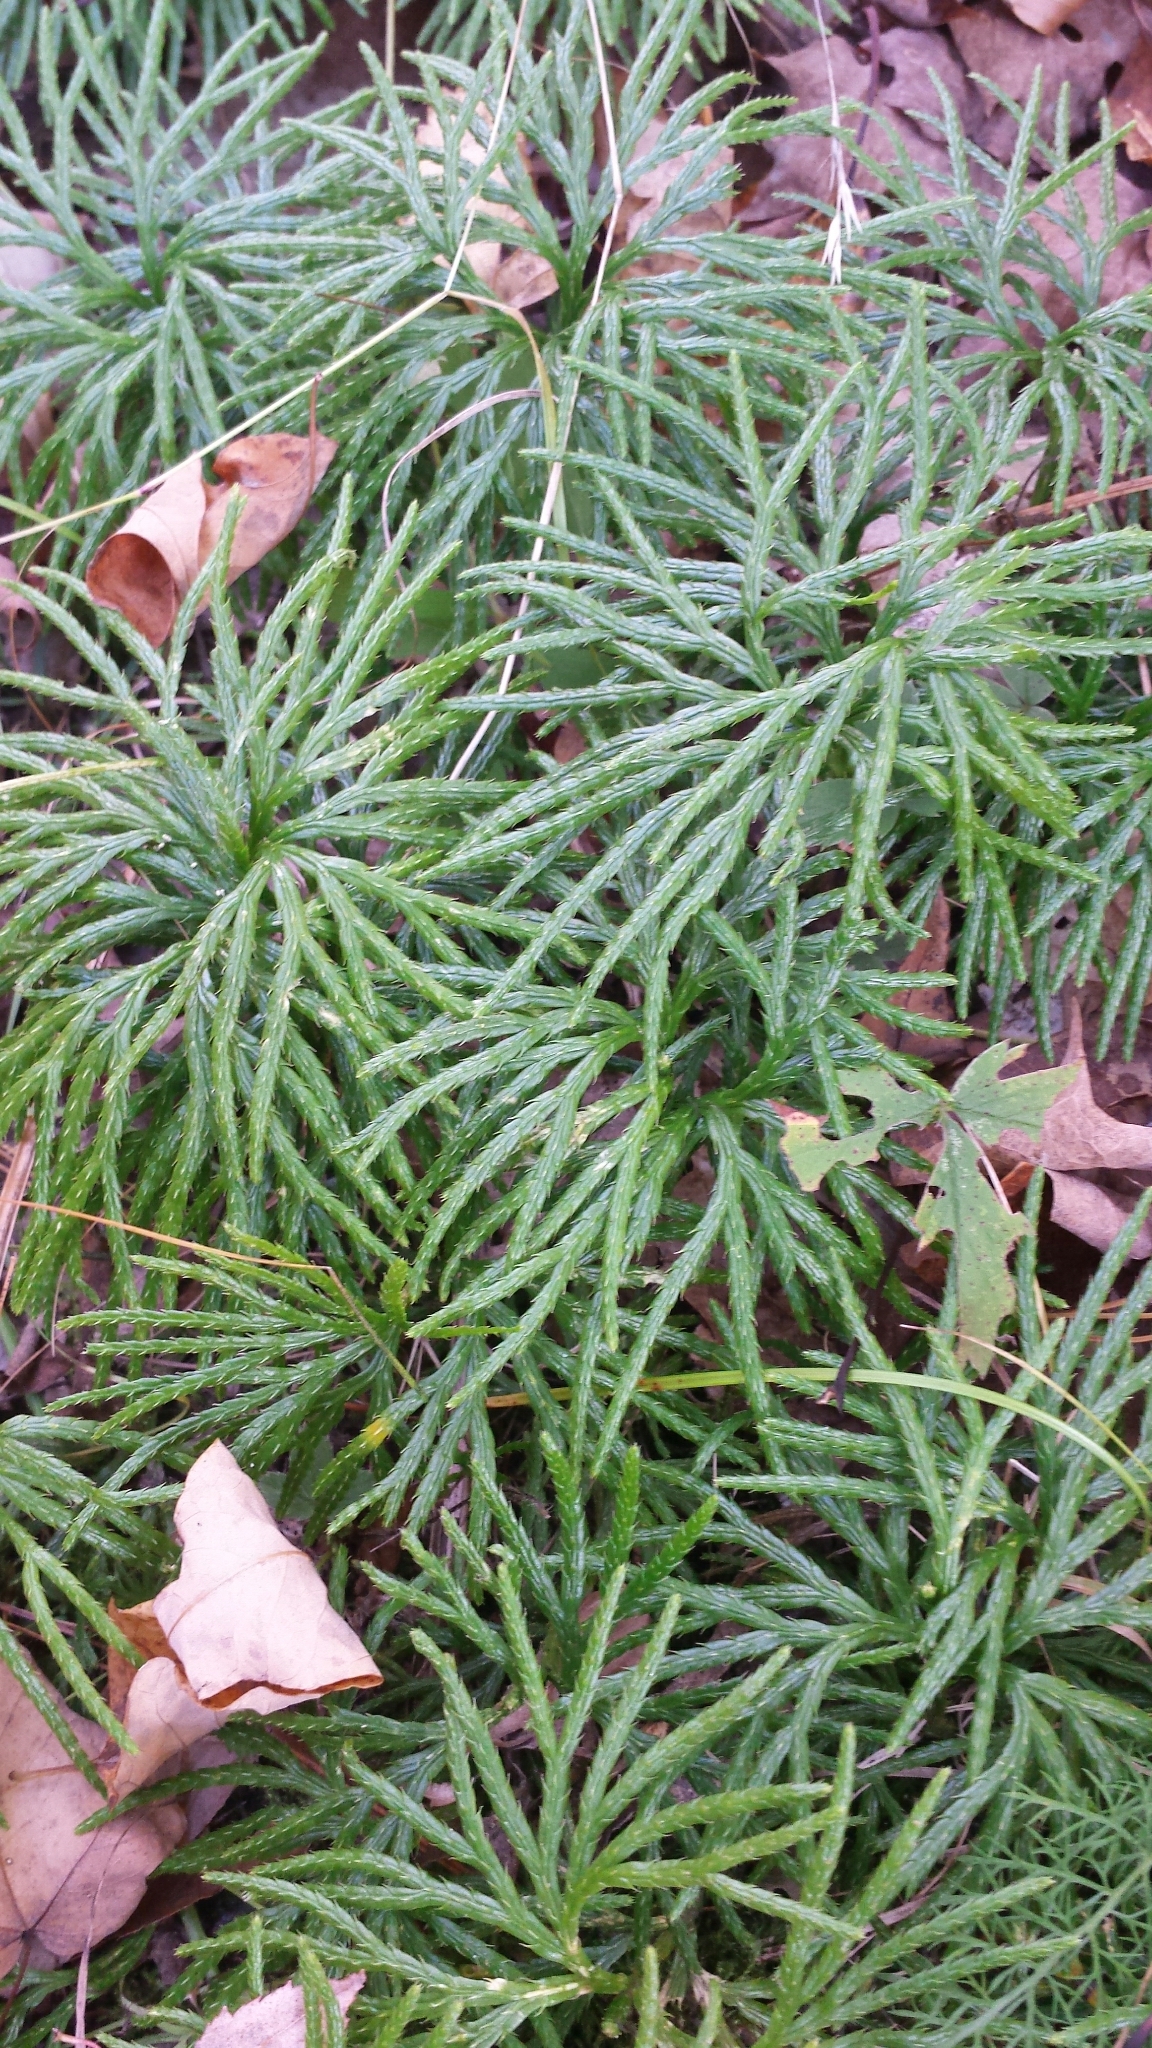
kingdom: Plantae
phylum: Tracheophyta
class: Lycopodiopsida
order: Lycopodiales
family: Lycopodiaceae
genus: Diphasiastrum
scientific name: Diphasiastrum digitatum
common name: Southern running-pine
